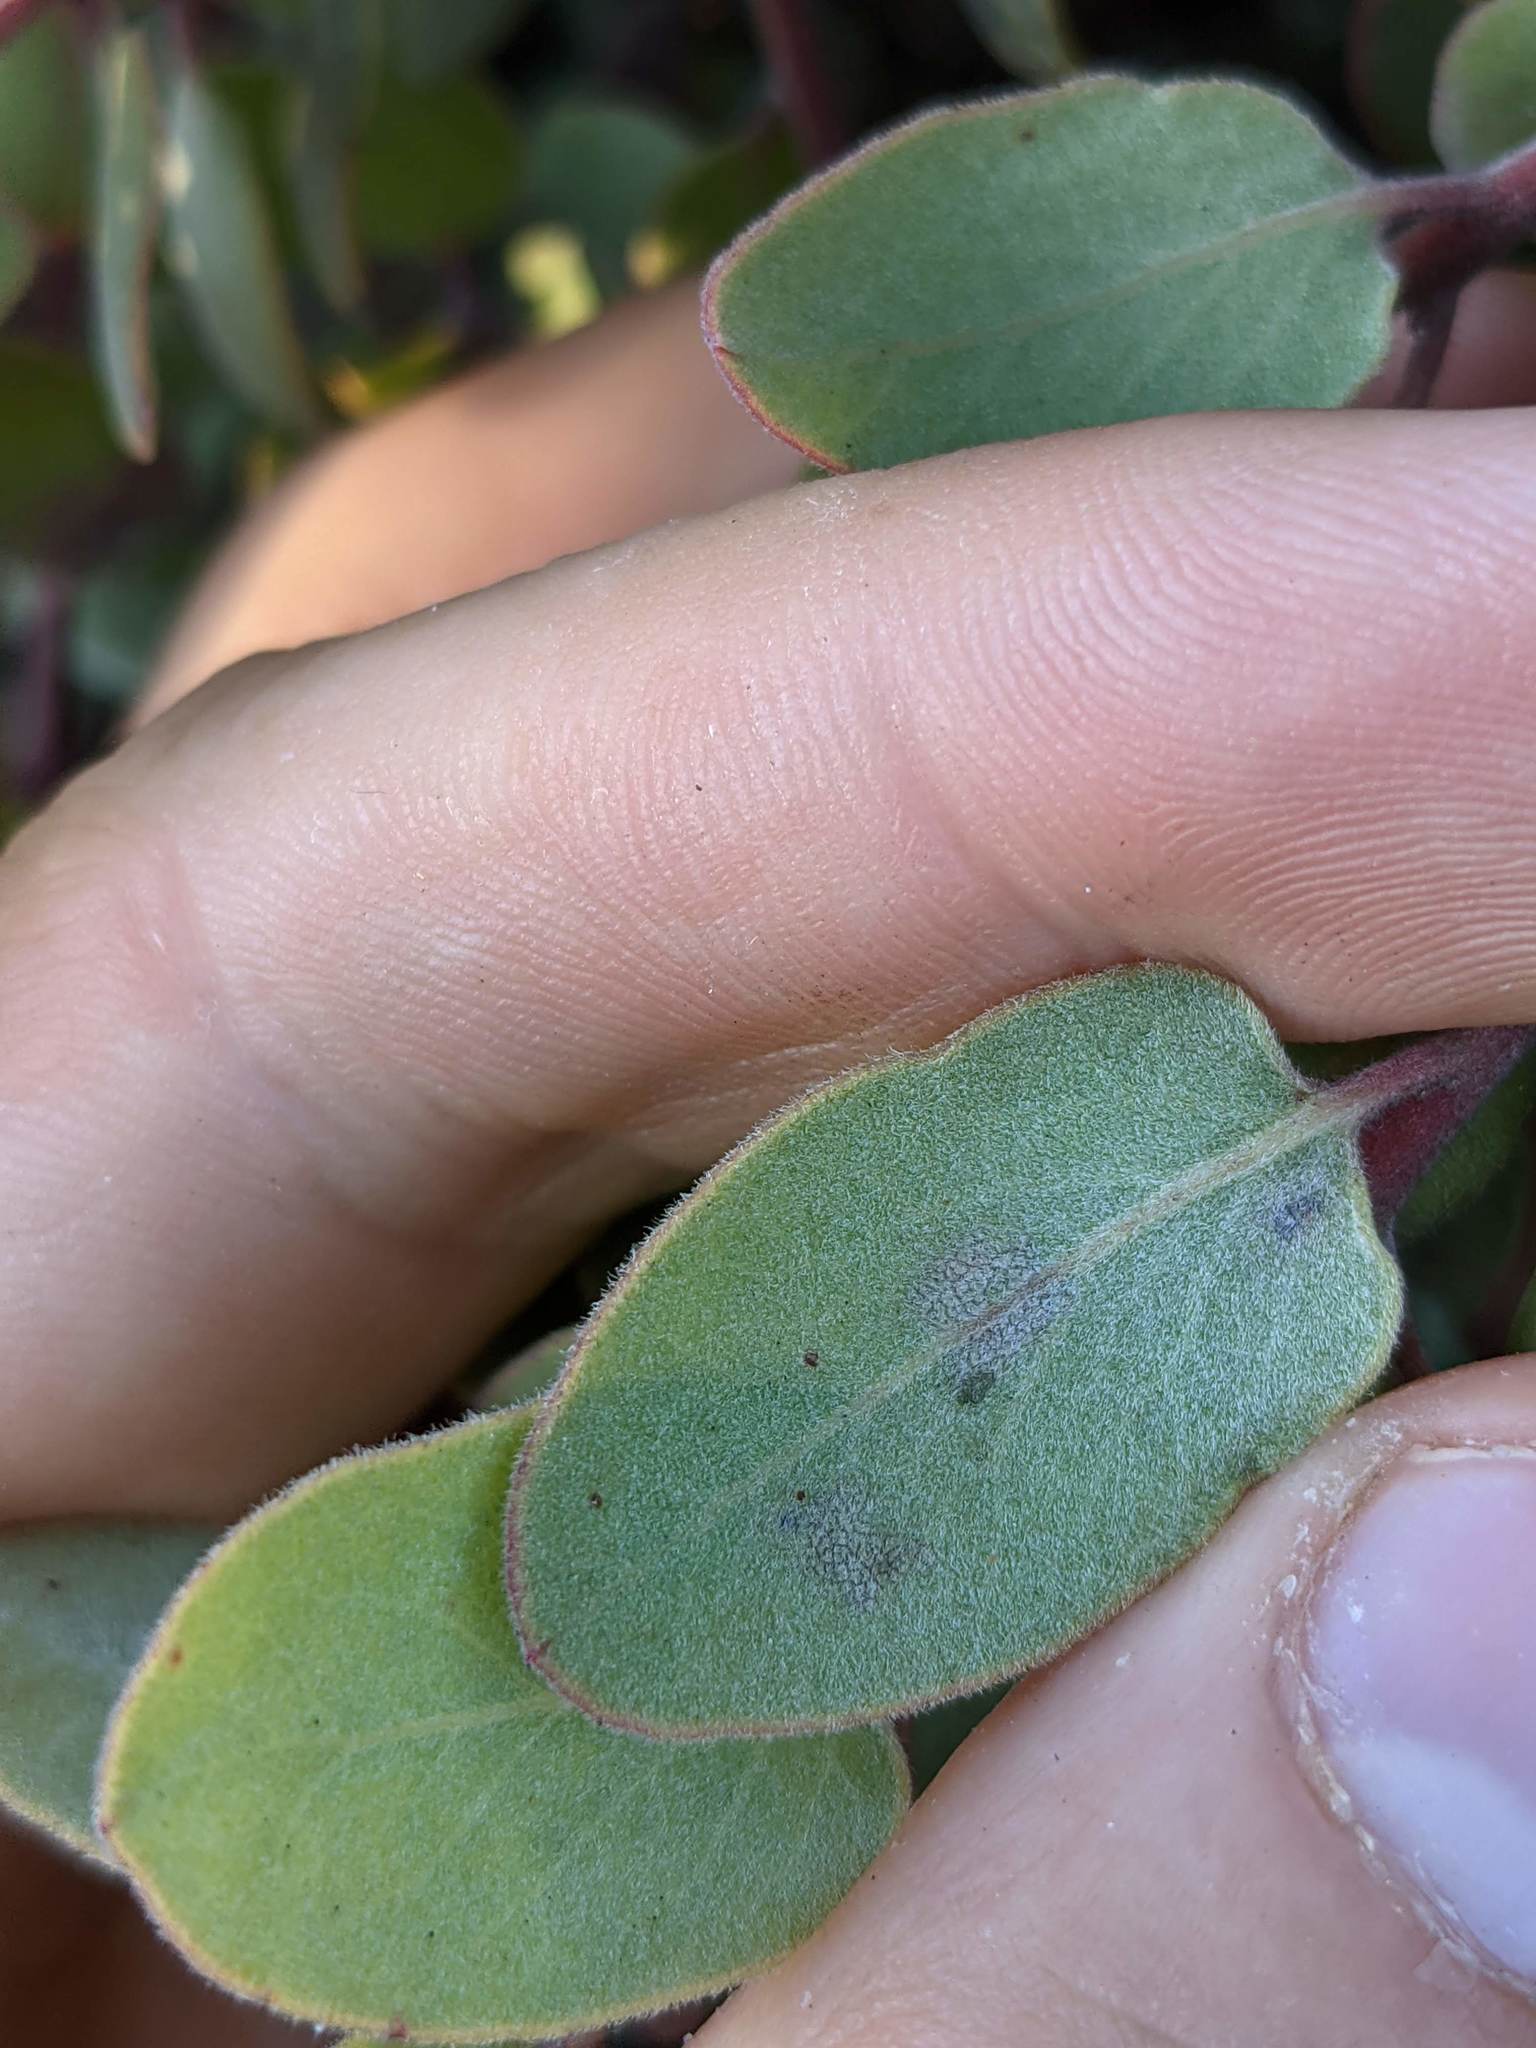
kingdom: Plantae
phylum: Tracheophyta
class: Magnoliopsida
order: Ericales
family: Ericaceae
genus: Arctostaphylos
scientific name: Arctostaphylos morroensis
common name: Morro manzanita
